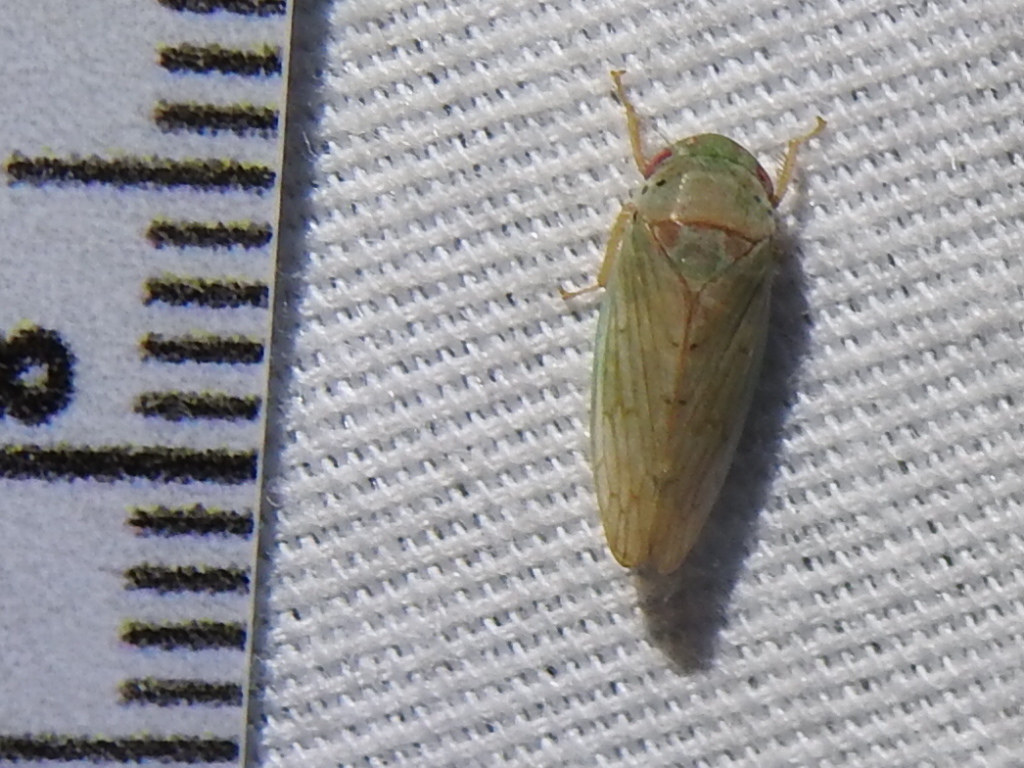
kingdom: Animalia
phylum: Arthropoda
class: Insecta
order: Hemiptera
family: Cicadellidae
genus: Polana
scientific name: Polana quadrinotata
